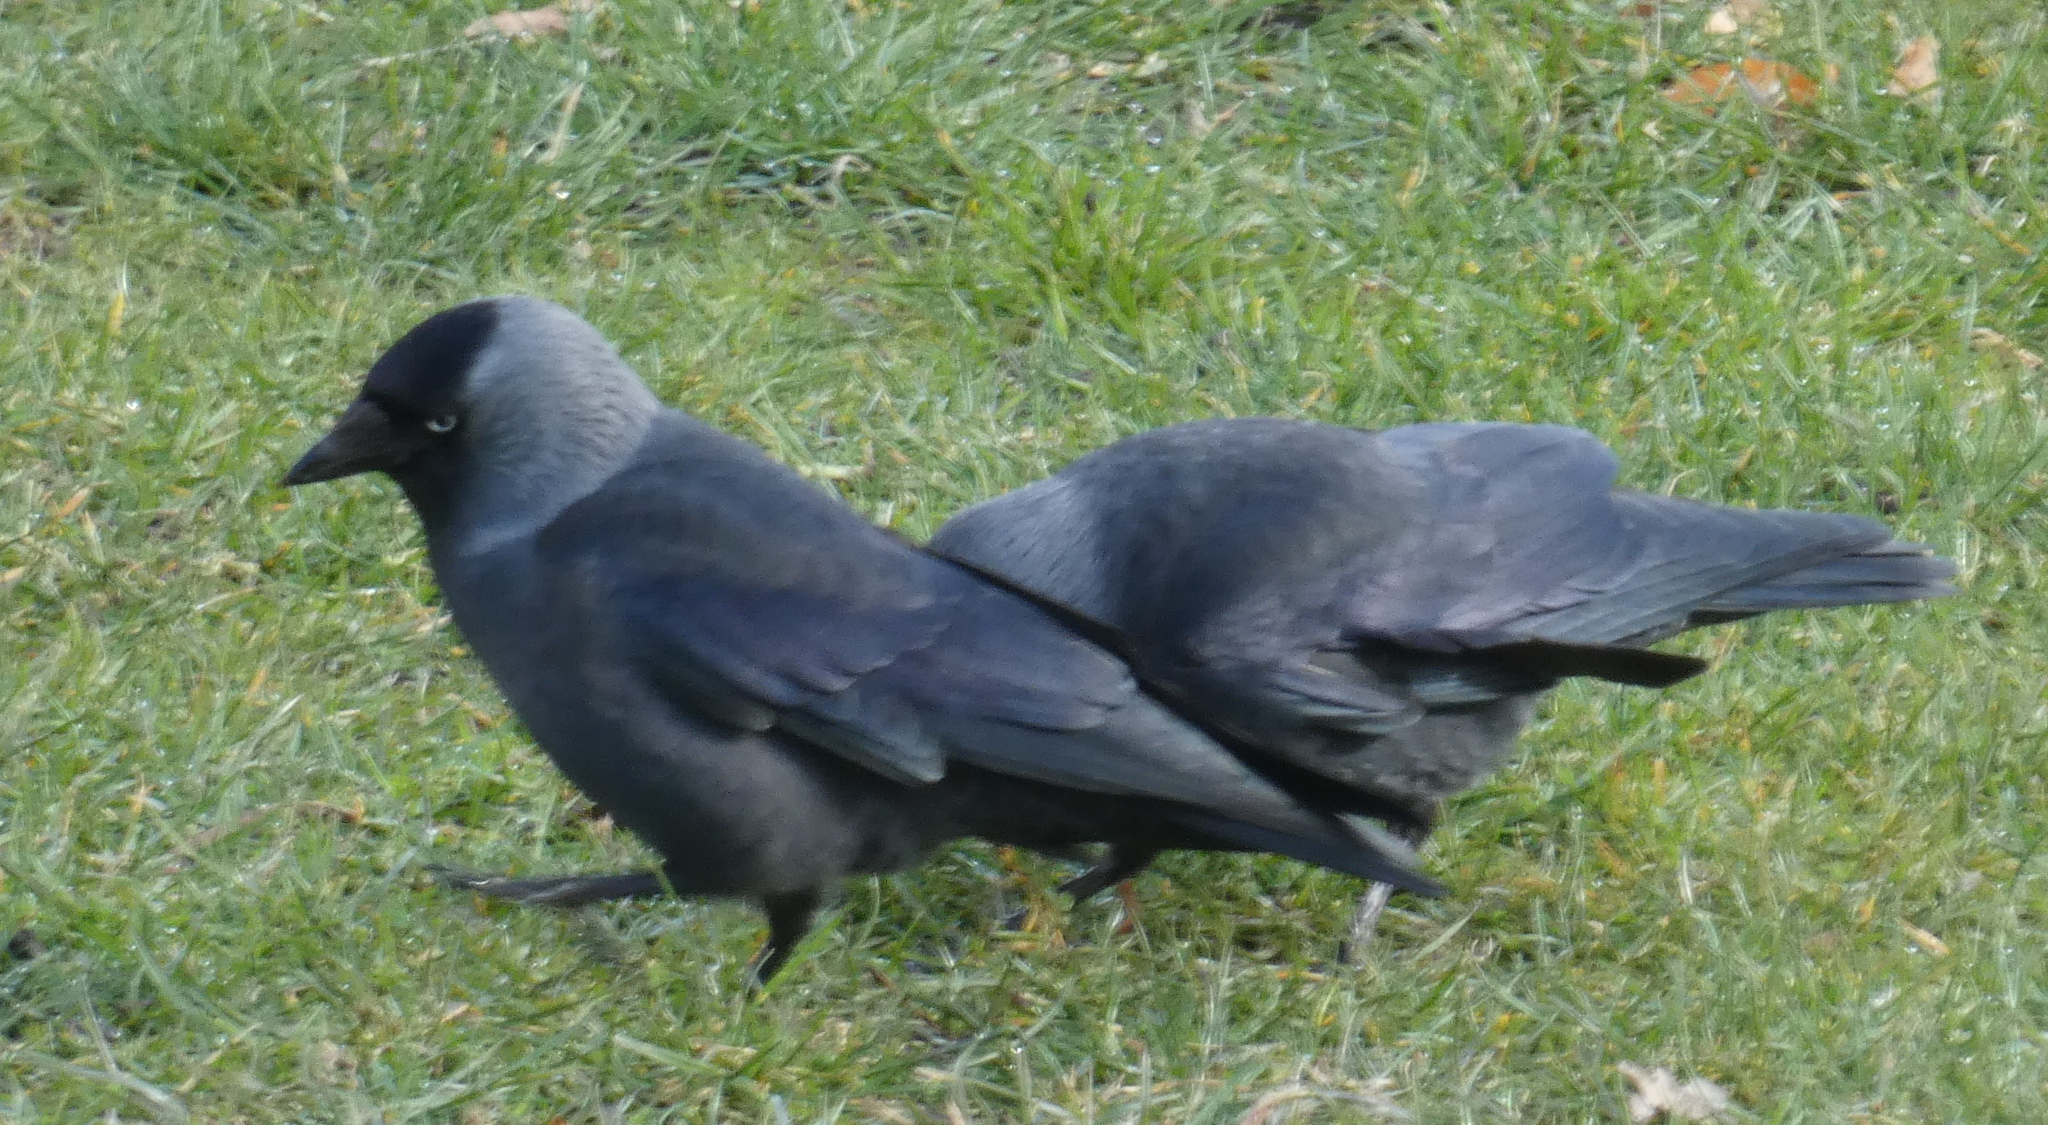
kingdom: Animalia
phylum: Chordata
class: Aves
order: Passeriformes
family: Corvidae
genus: Coloeus
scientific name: Coloeus monedula
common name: Western jackdaw
